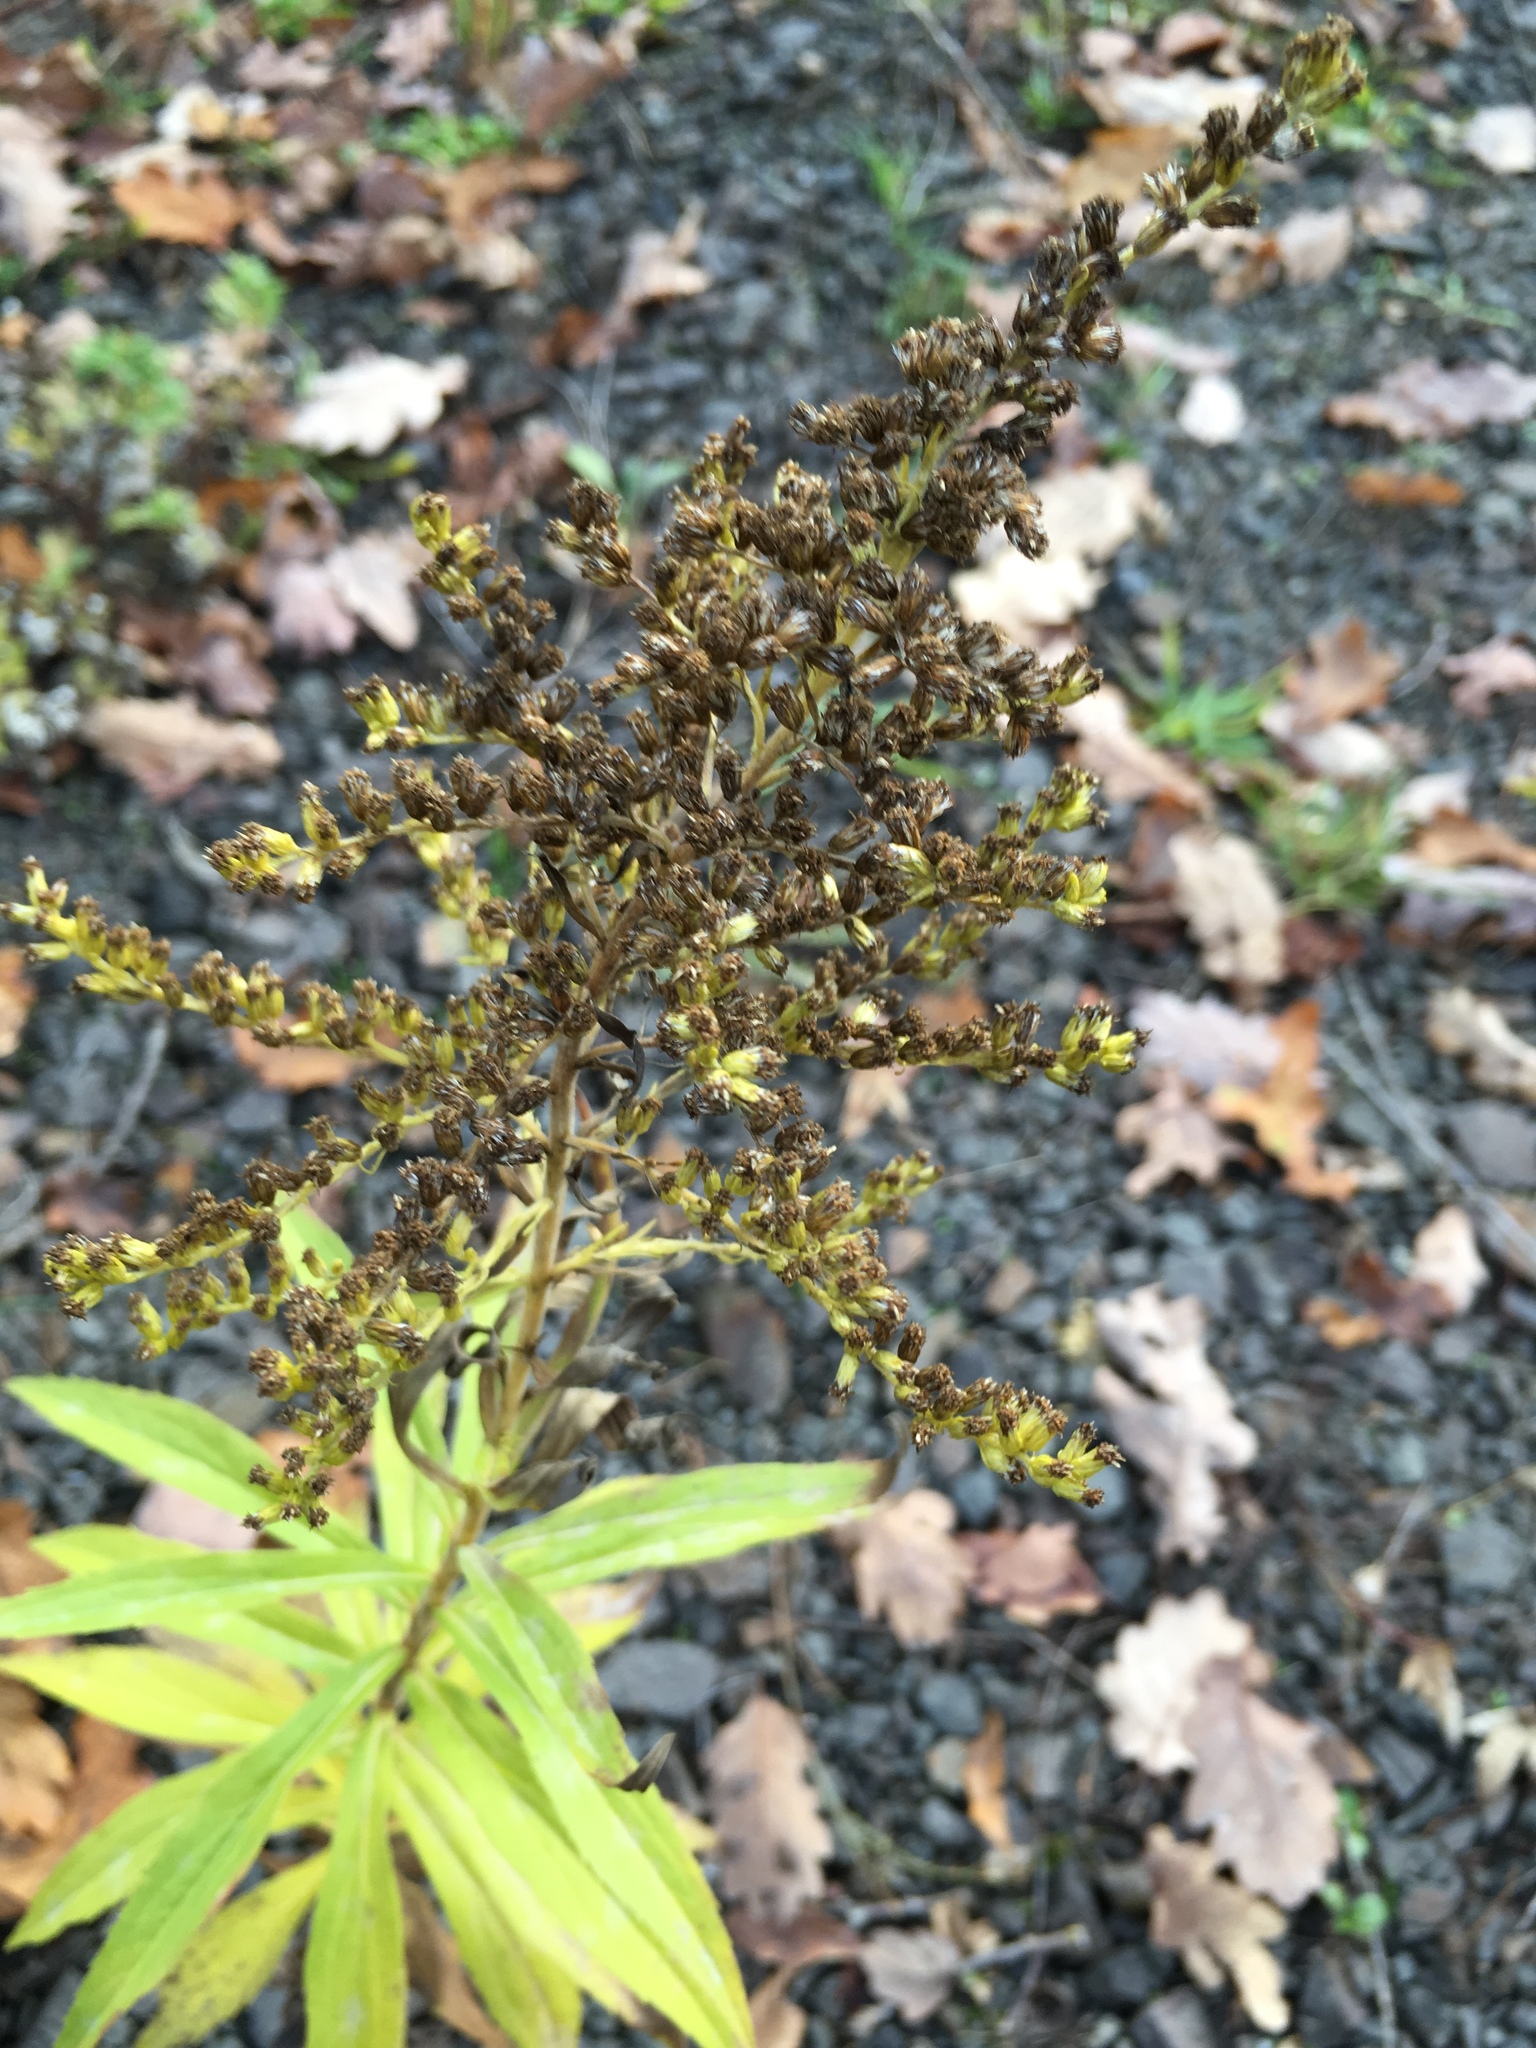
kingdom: Plantae
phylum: Tracheophyta
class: Magnoliopsida
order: Asterales
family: Asteraceae
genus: Solidago
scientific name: Solidago canadensis
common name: Canada goldenrod
